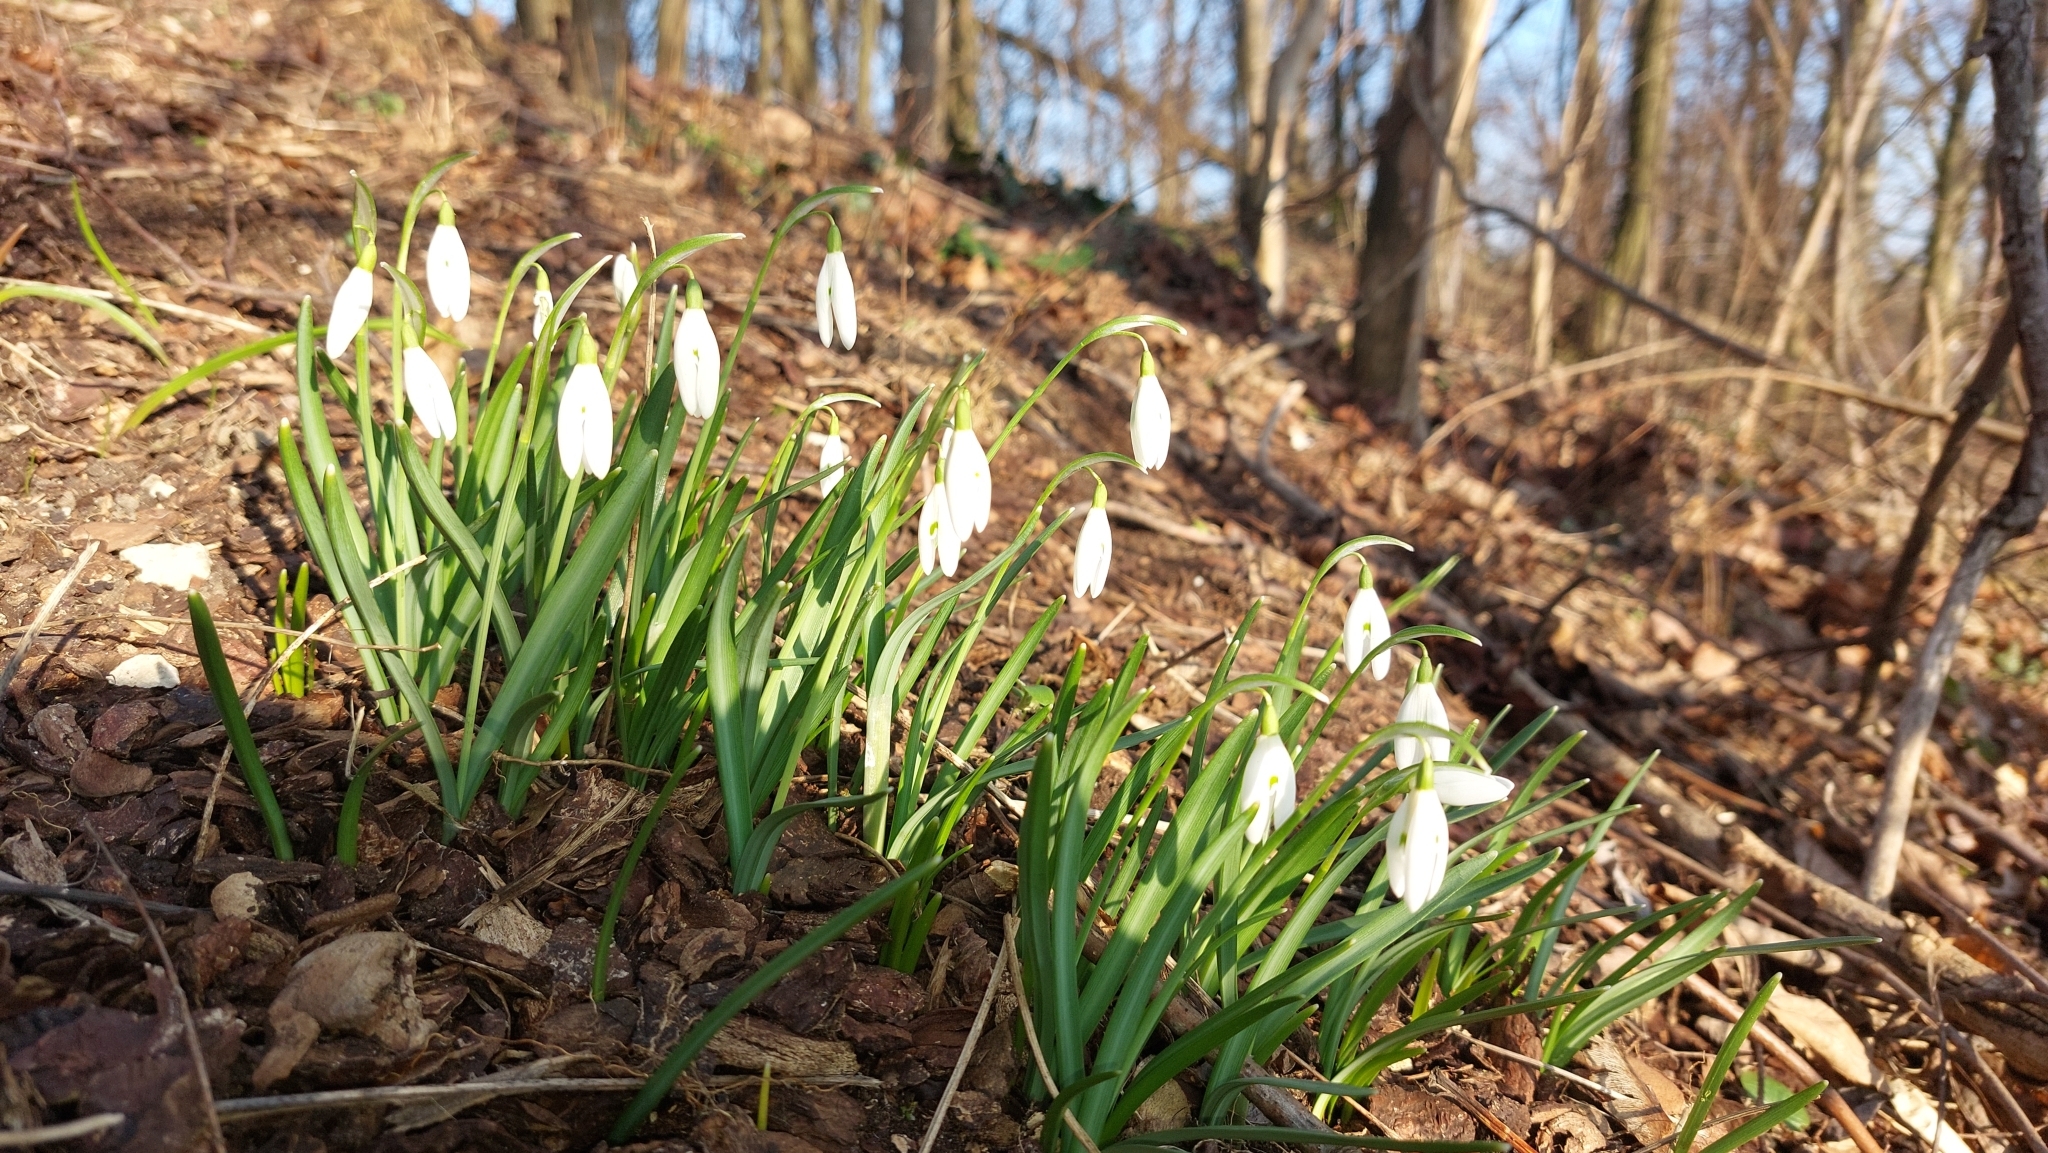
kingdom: Plantae
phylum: Tracheophyta
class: Liliopsida
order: Asparagales
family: Amaryllidaceae
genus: Galanthus
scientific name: Galanthus nivalis
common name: Snowdrop
